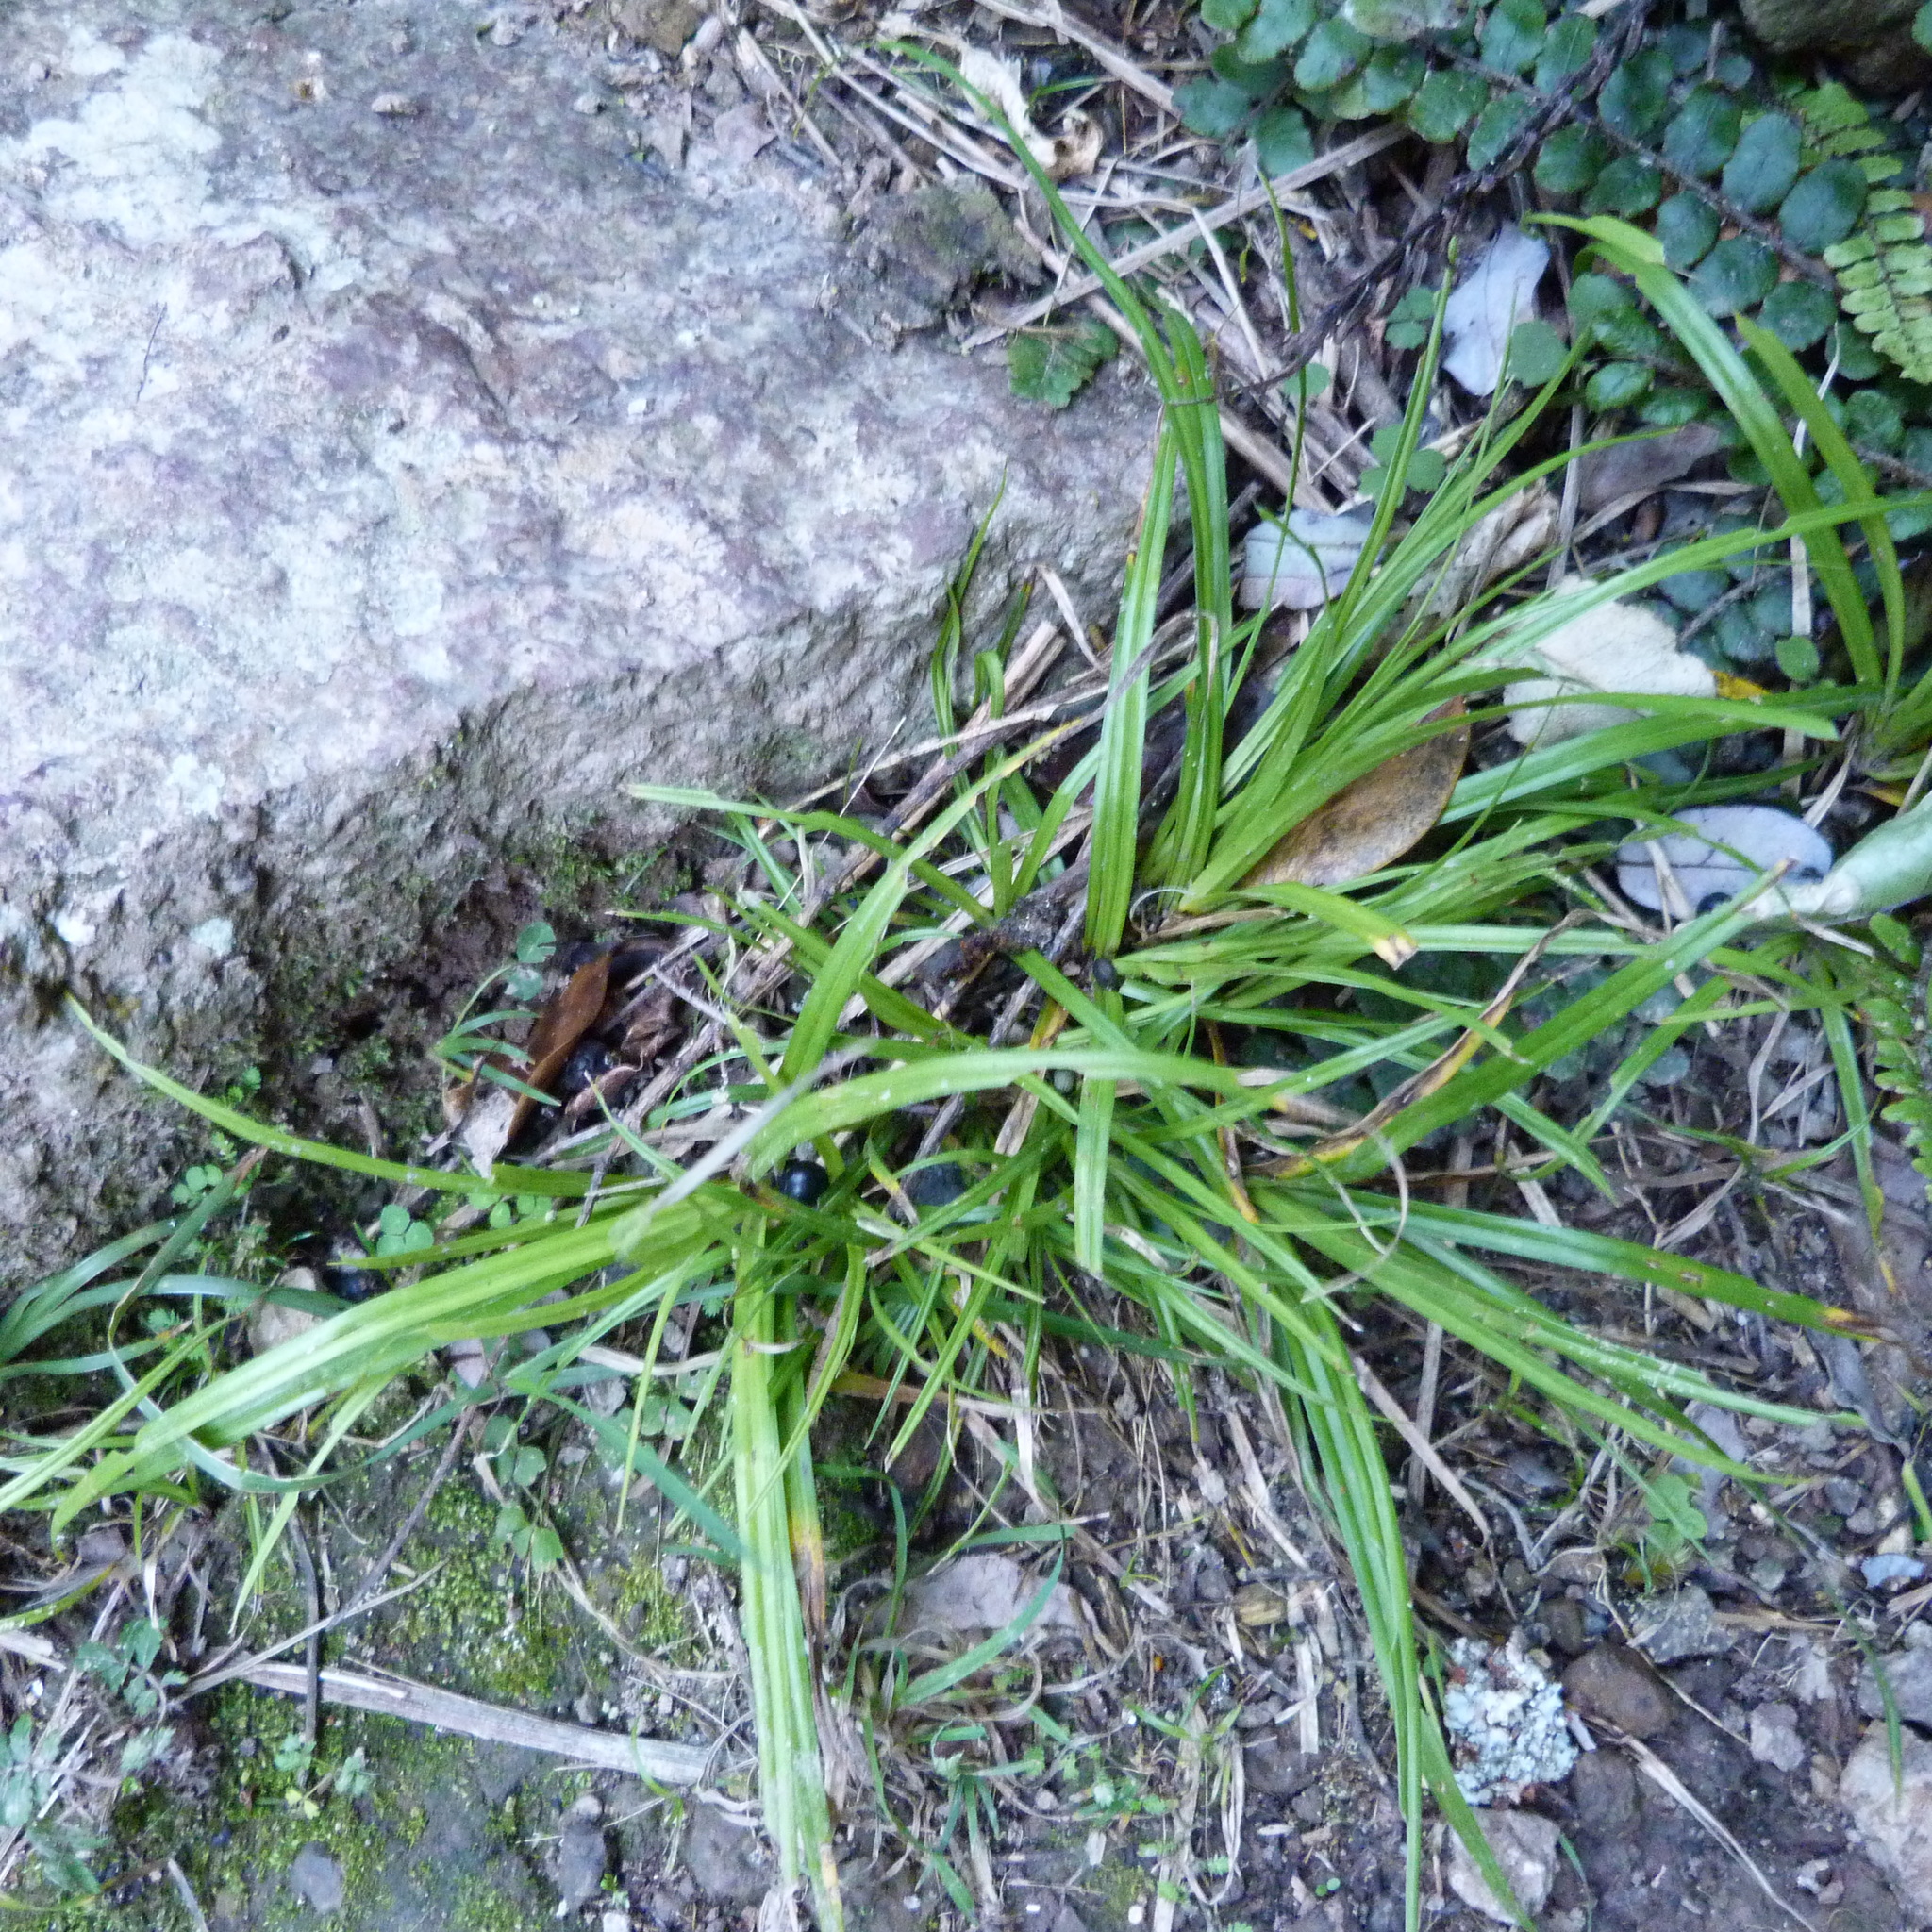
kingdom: Plantae
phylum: Tracheophyta
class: Liliopsida
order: Poales
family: Cyperaceae
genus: Carex
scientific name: Carex uncinata
